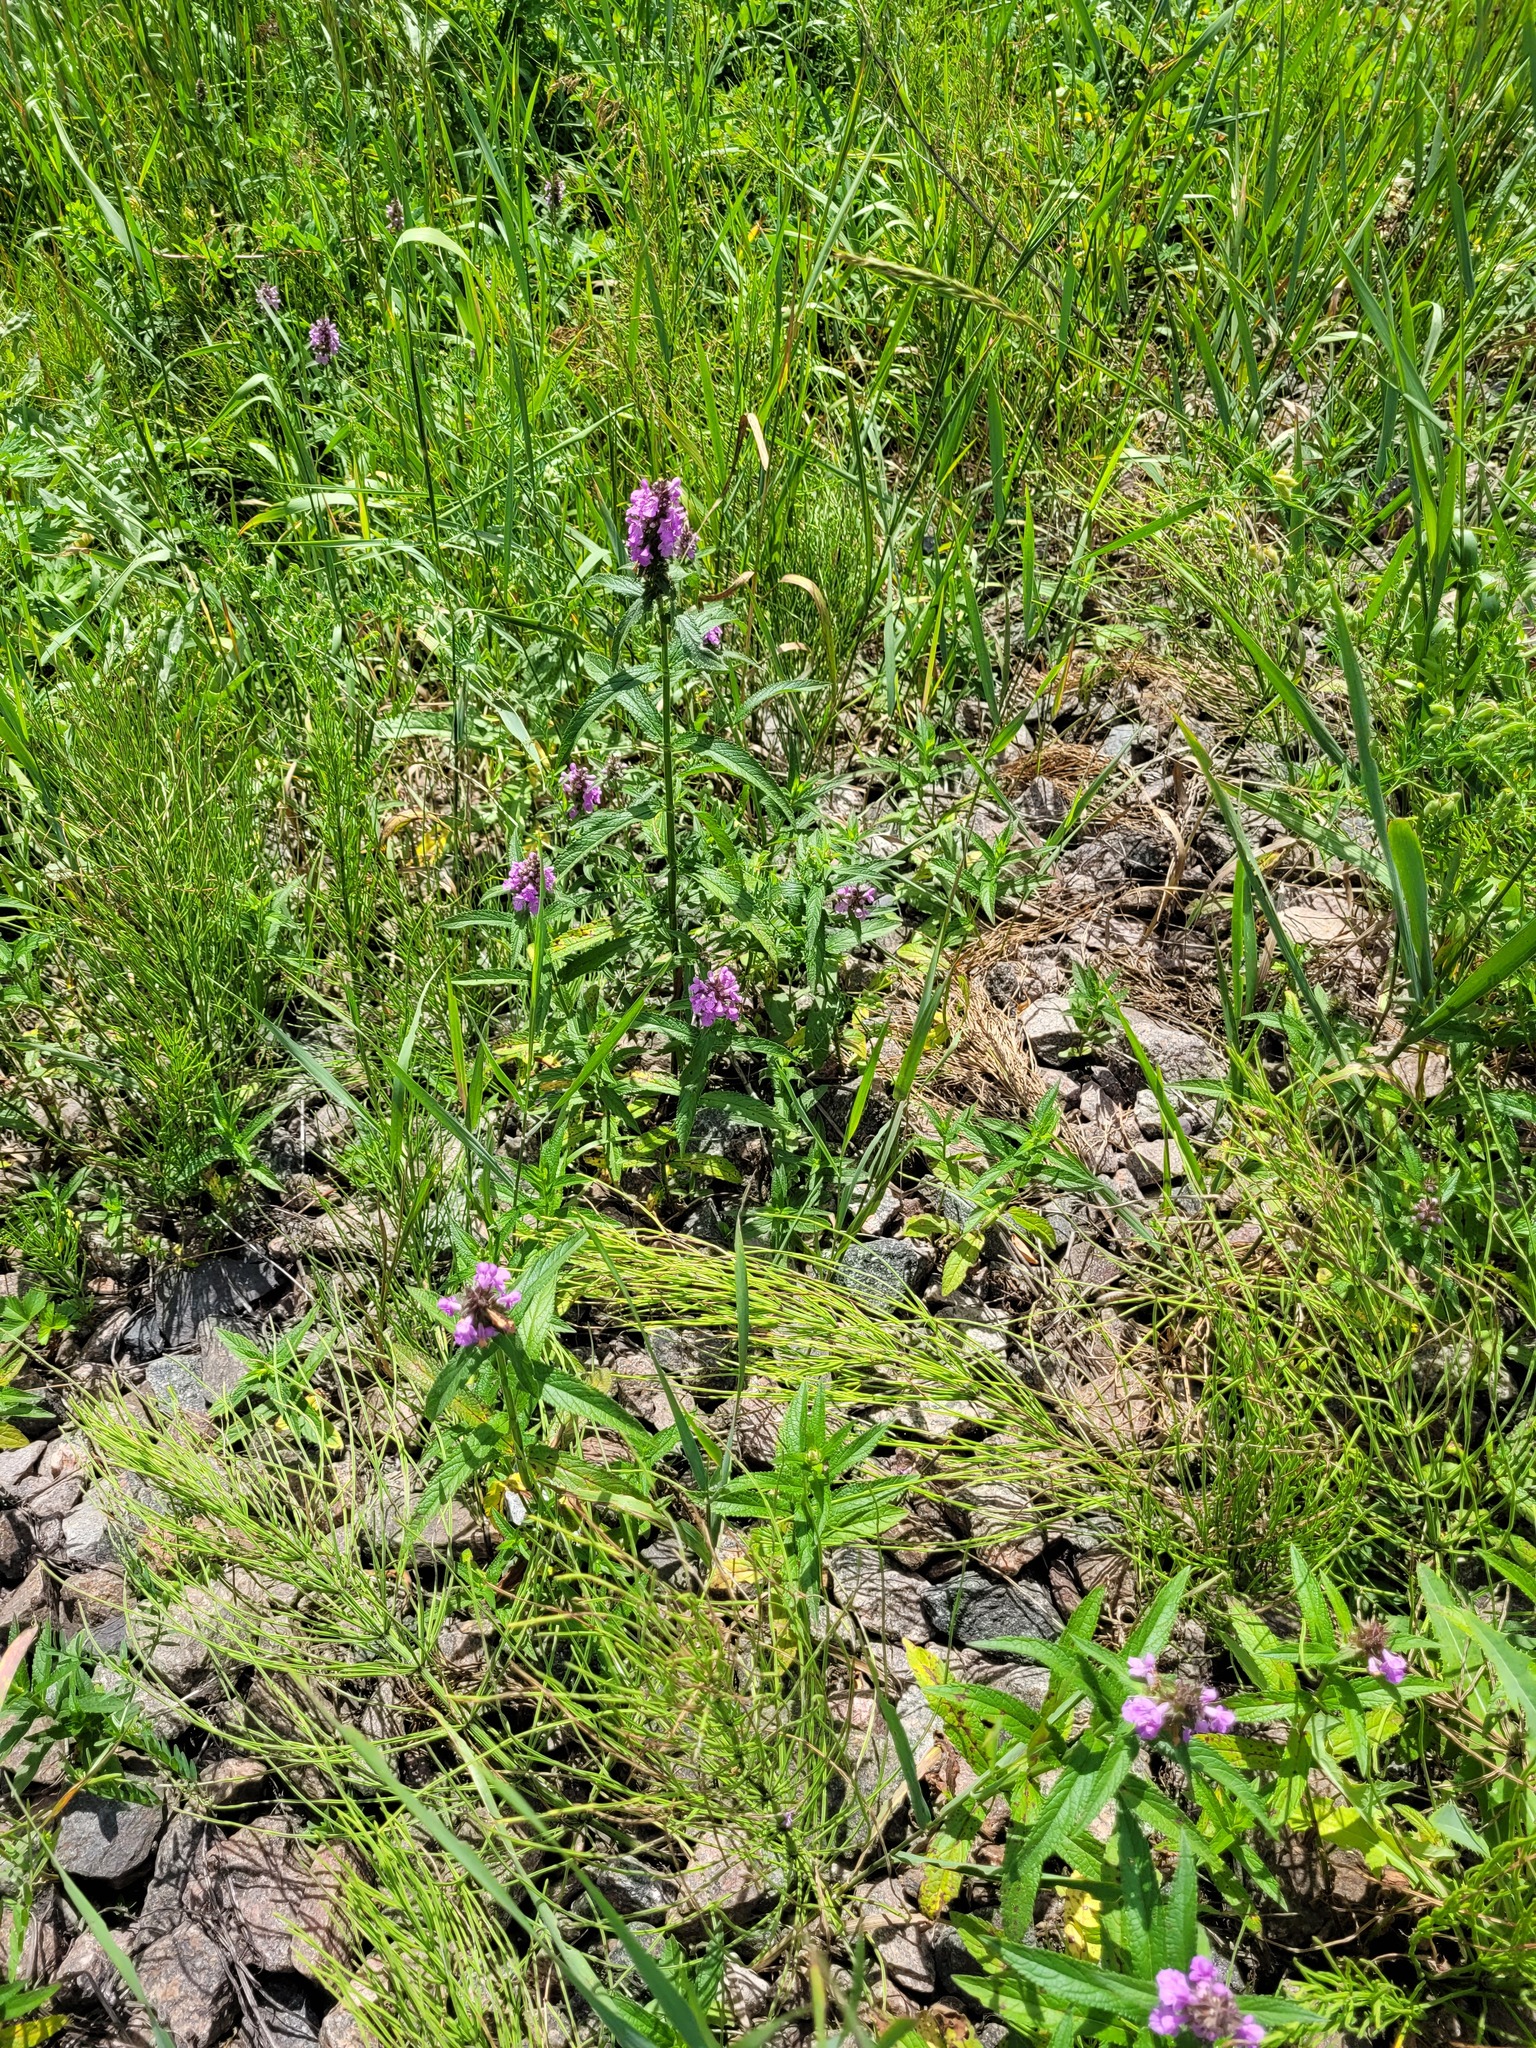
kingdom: Plantae
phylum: Tracheophyta
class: Magnoliopsida
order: Lamiales
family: Lamiaceae
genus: Stachys
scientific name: Stachys palustris
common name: Marsh woundwort
